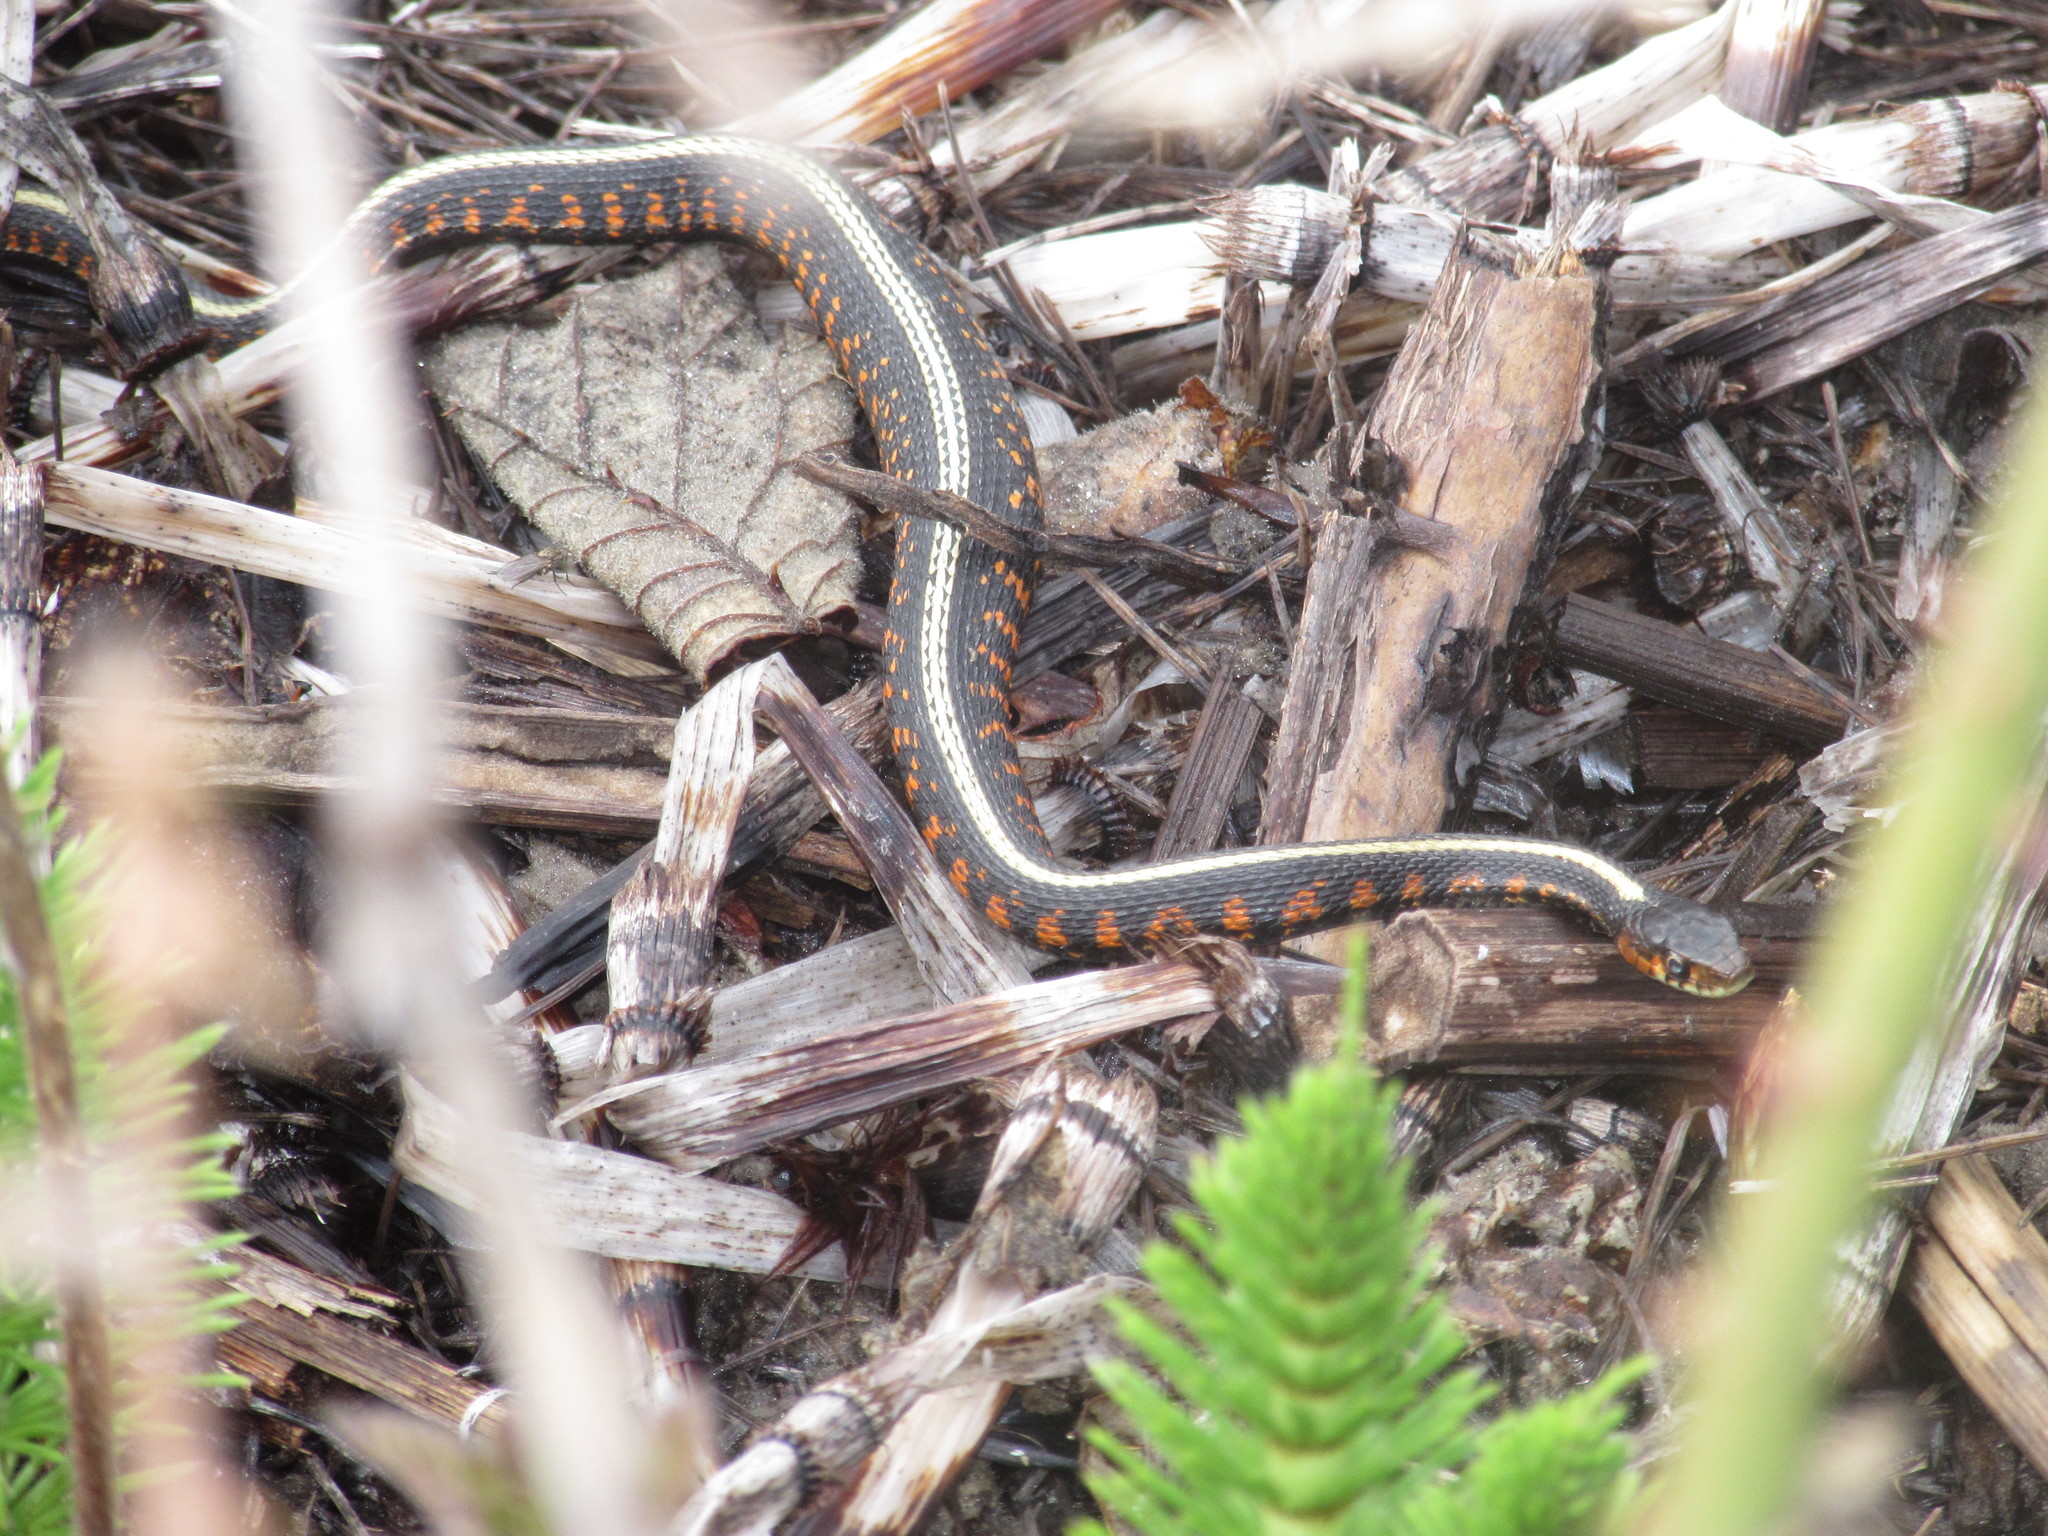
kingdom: Animalia
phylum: Chordata
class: Squamata
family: Colubridae
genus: Thamnophis
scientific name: Thamnophis sirtalis
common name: Common garter snake
